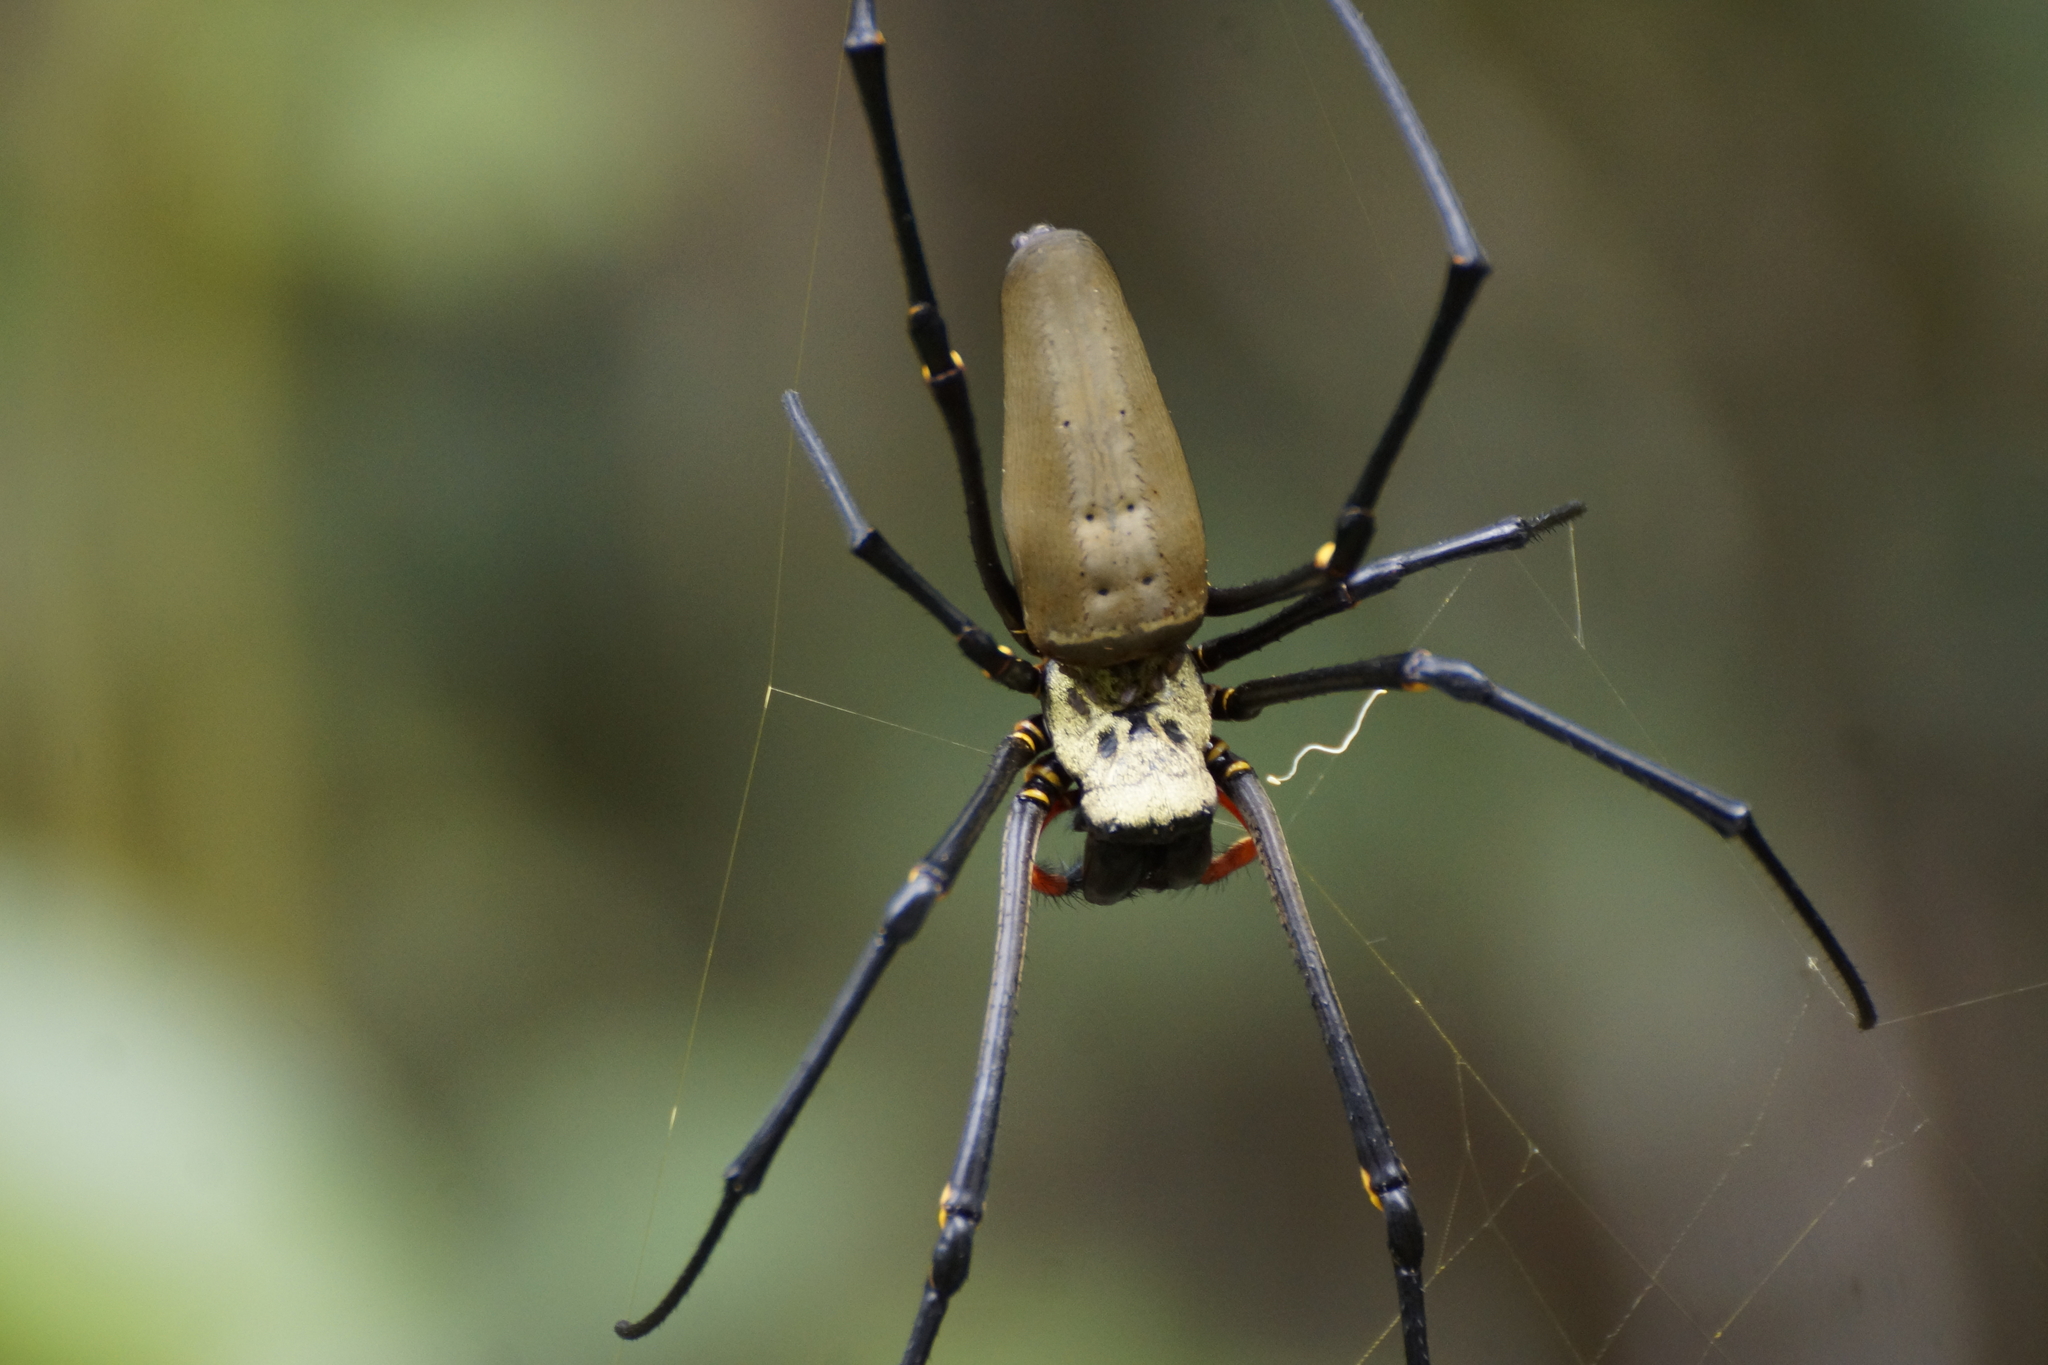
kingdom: Animalia
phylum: Arthropoda
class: Arachnida
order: Araneae
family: Araneidae
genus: Nephila
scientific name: Nephila pilipes
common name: Giant golden orb weaver
